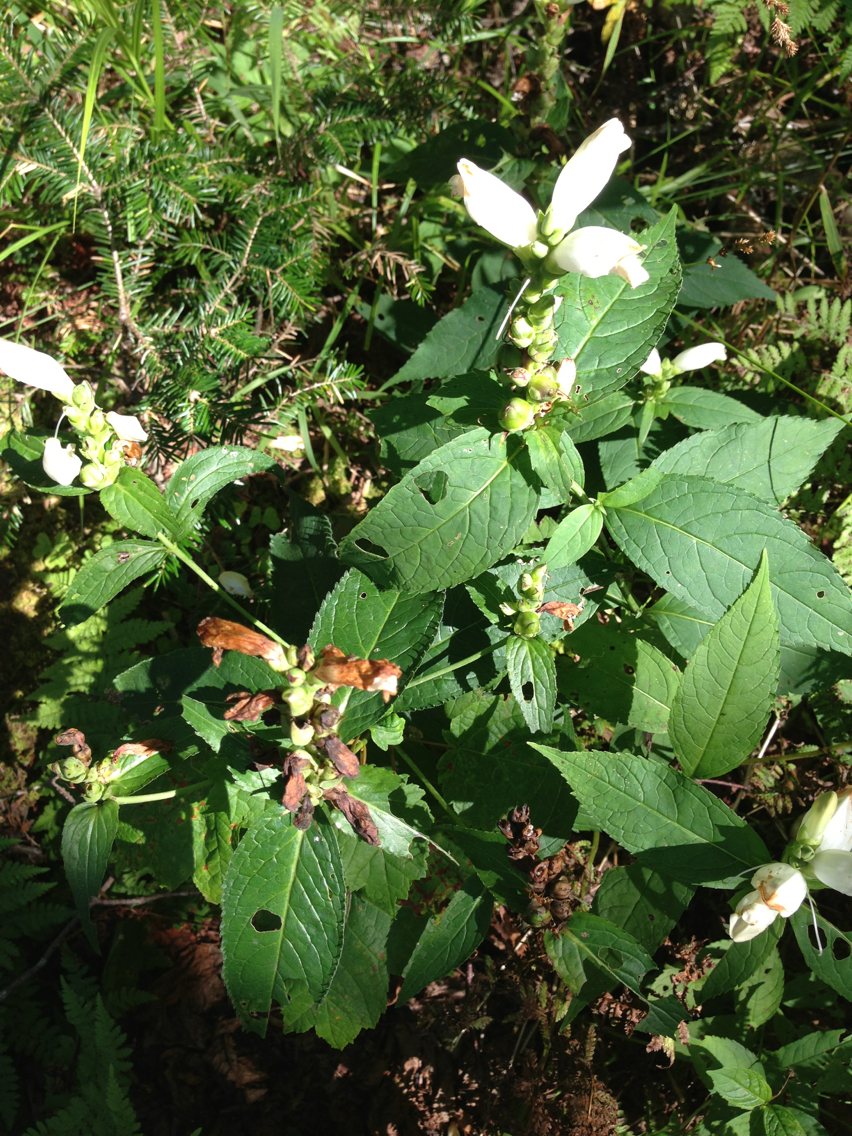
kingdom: Plantae
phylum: Tracheophyta
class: Magnoliopsida
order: Lamiales
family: Plantaginaceae
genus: Chelone
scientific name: Chelone glabra
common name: Snakehead
